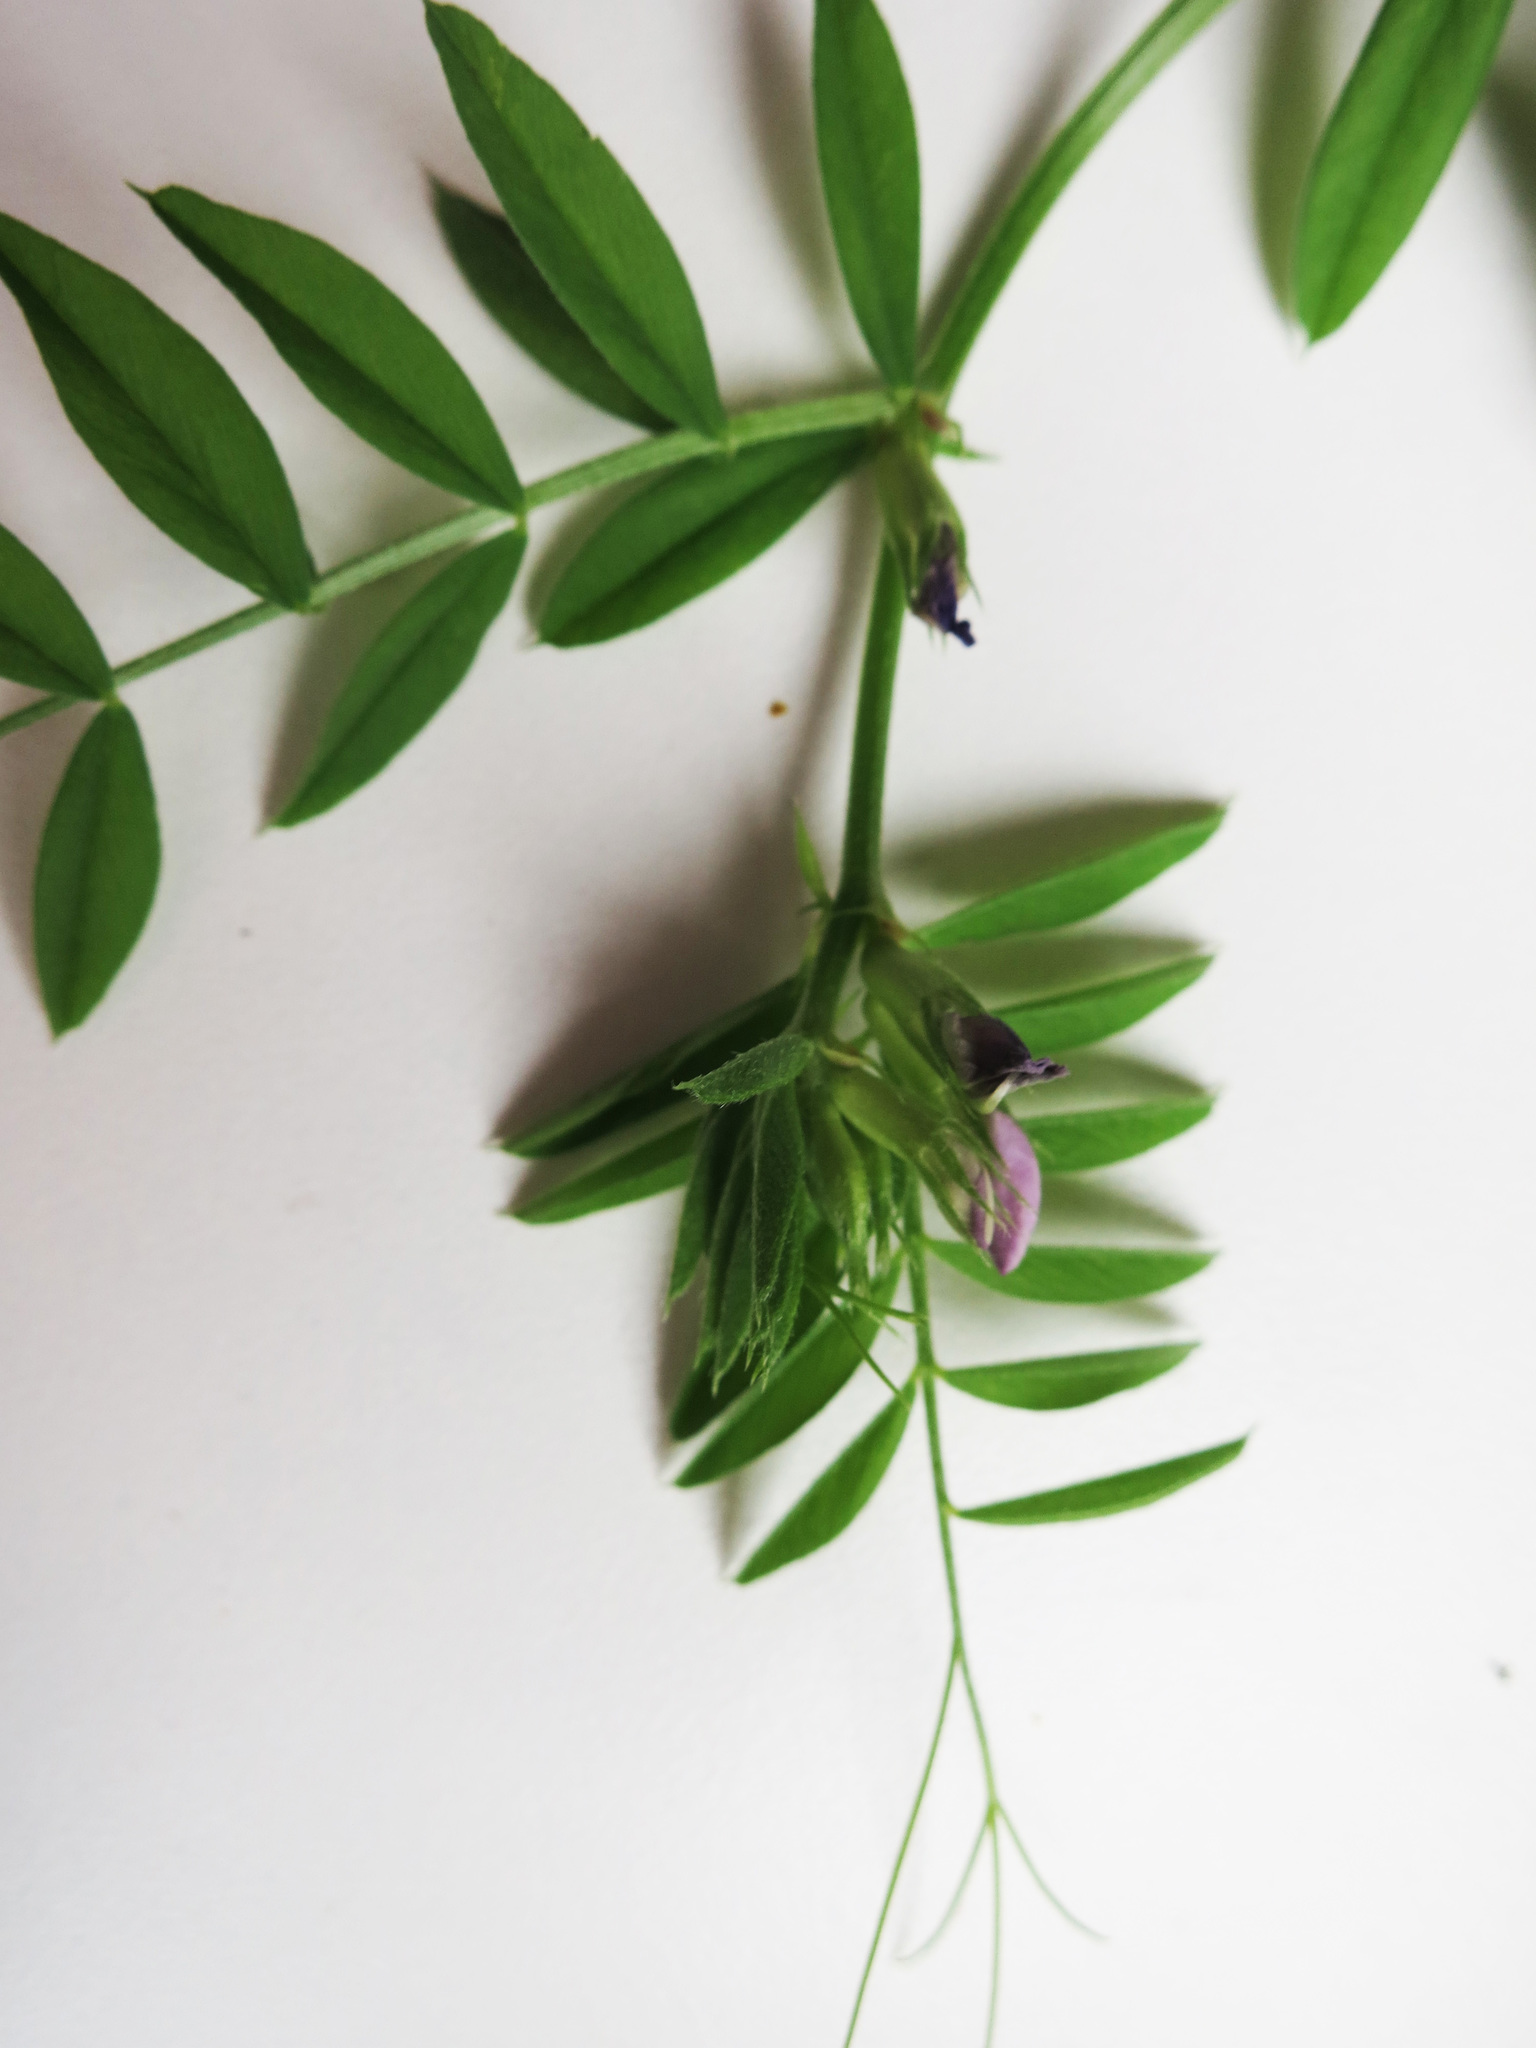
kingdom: Plantae
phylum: Tracheophyta
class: Magnoliopsida
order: Fabales
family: Fabaceae
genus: Vicia
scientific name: Vicia sativa
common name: Garden vetch
